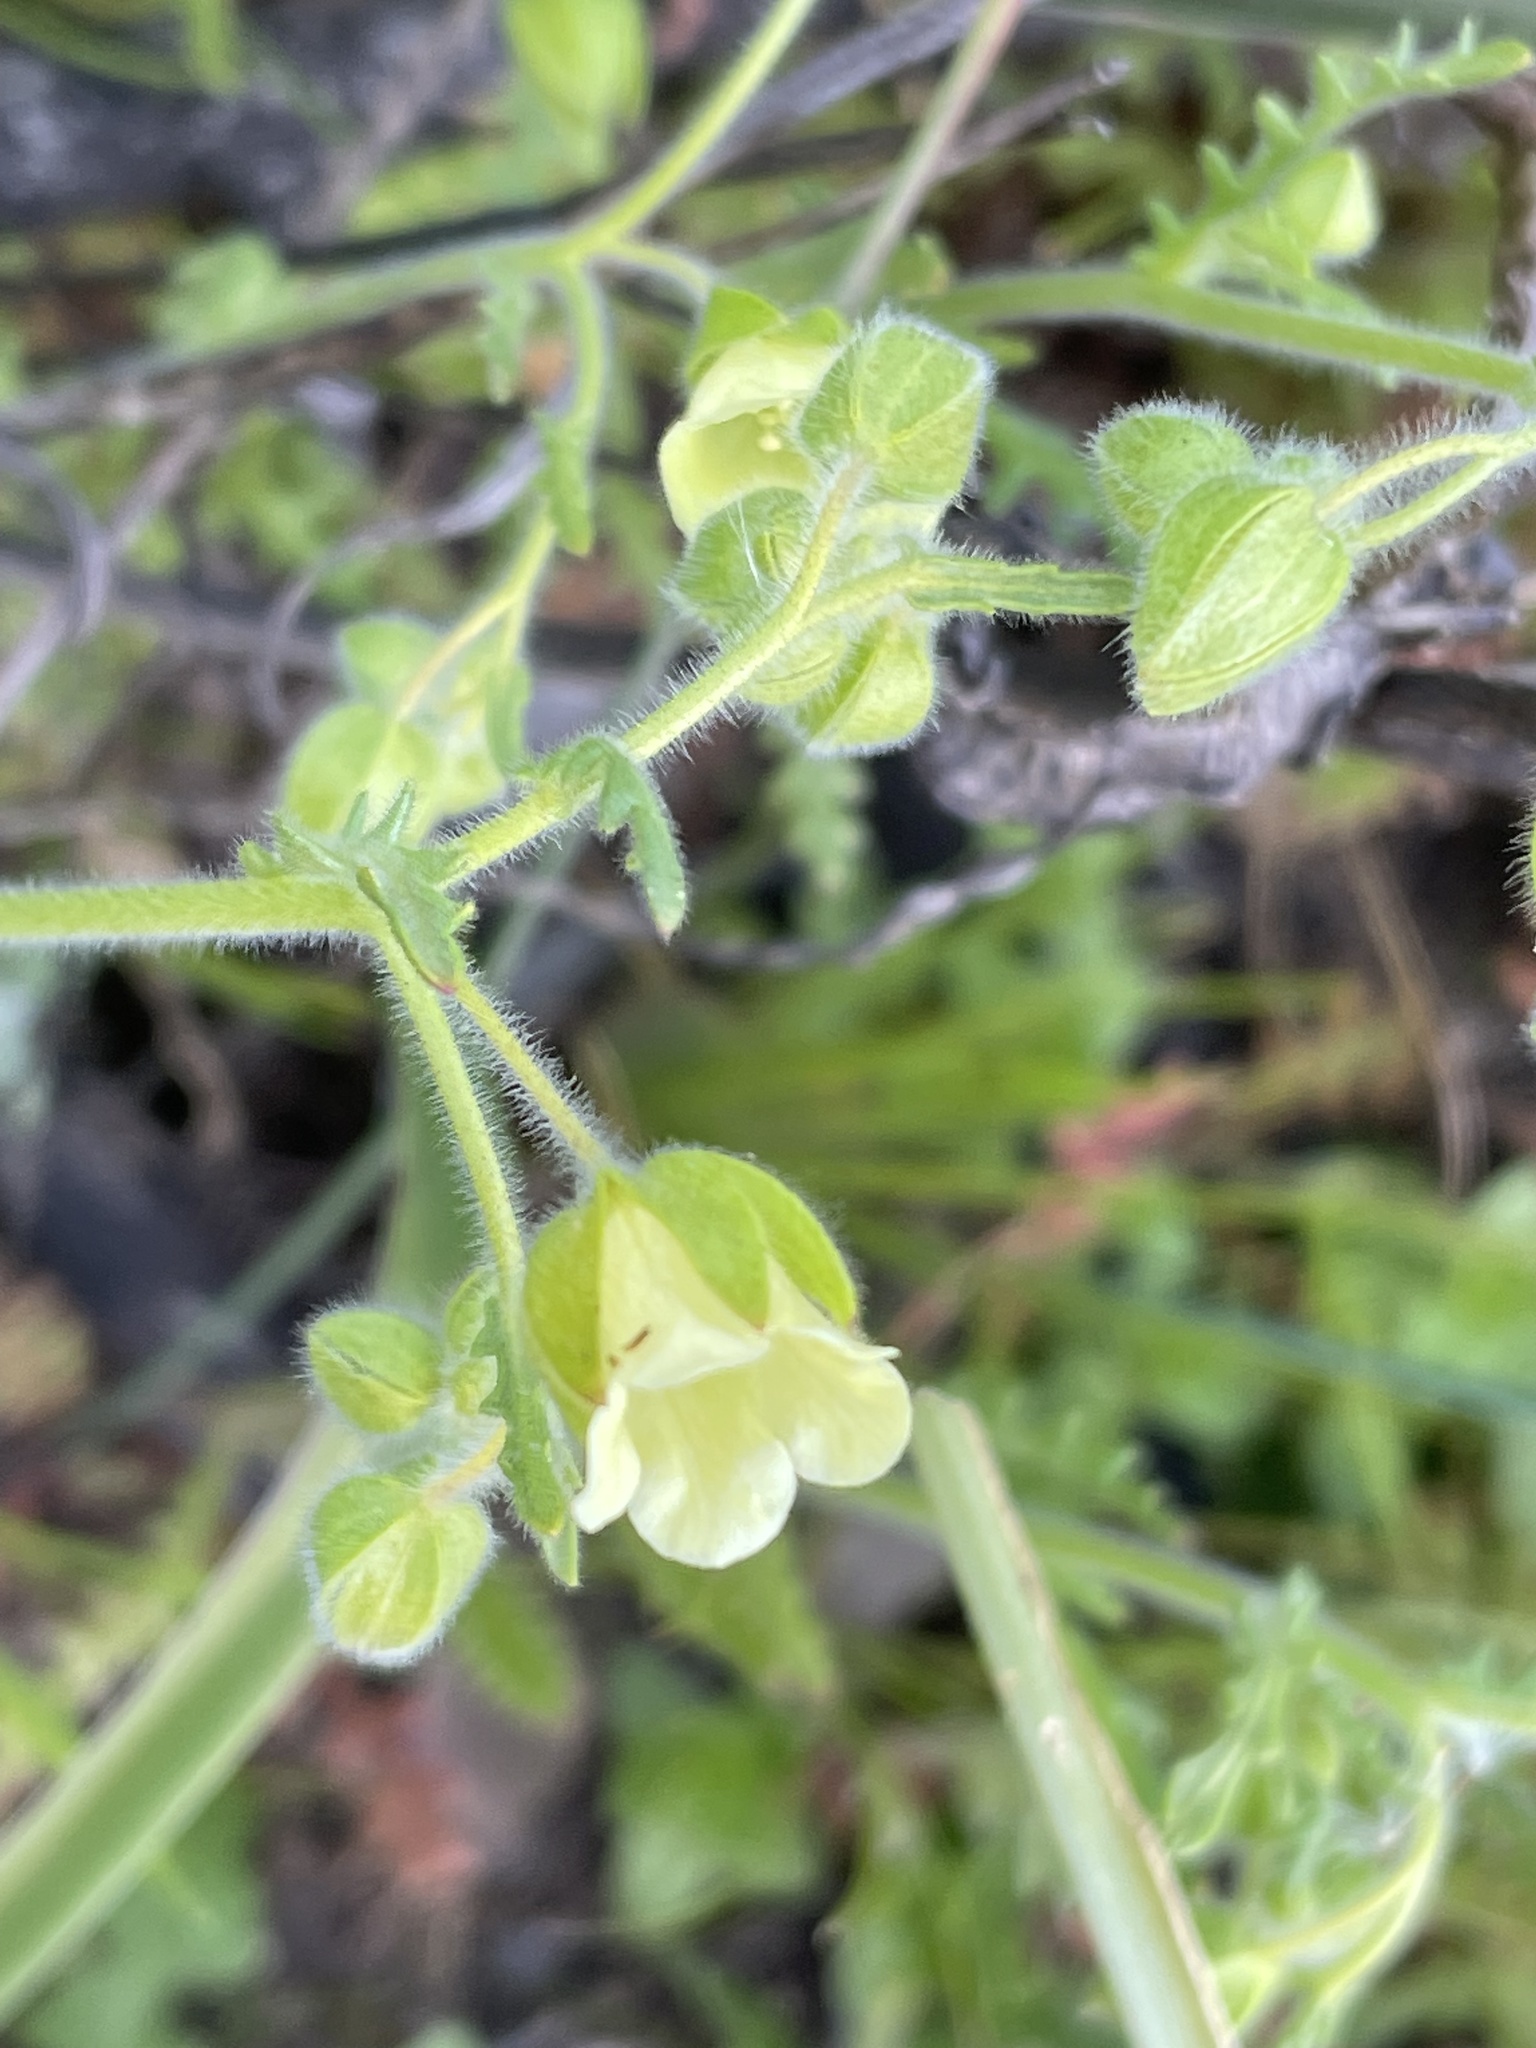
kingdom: Plantae
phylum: Tracheophyta
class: Magnoliopsida
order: Boraginales
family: Hydrophyllaceae
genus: Emmenanthe
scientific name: Emmenanthe penduliflora
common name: Whispering-bells
